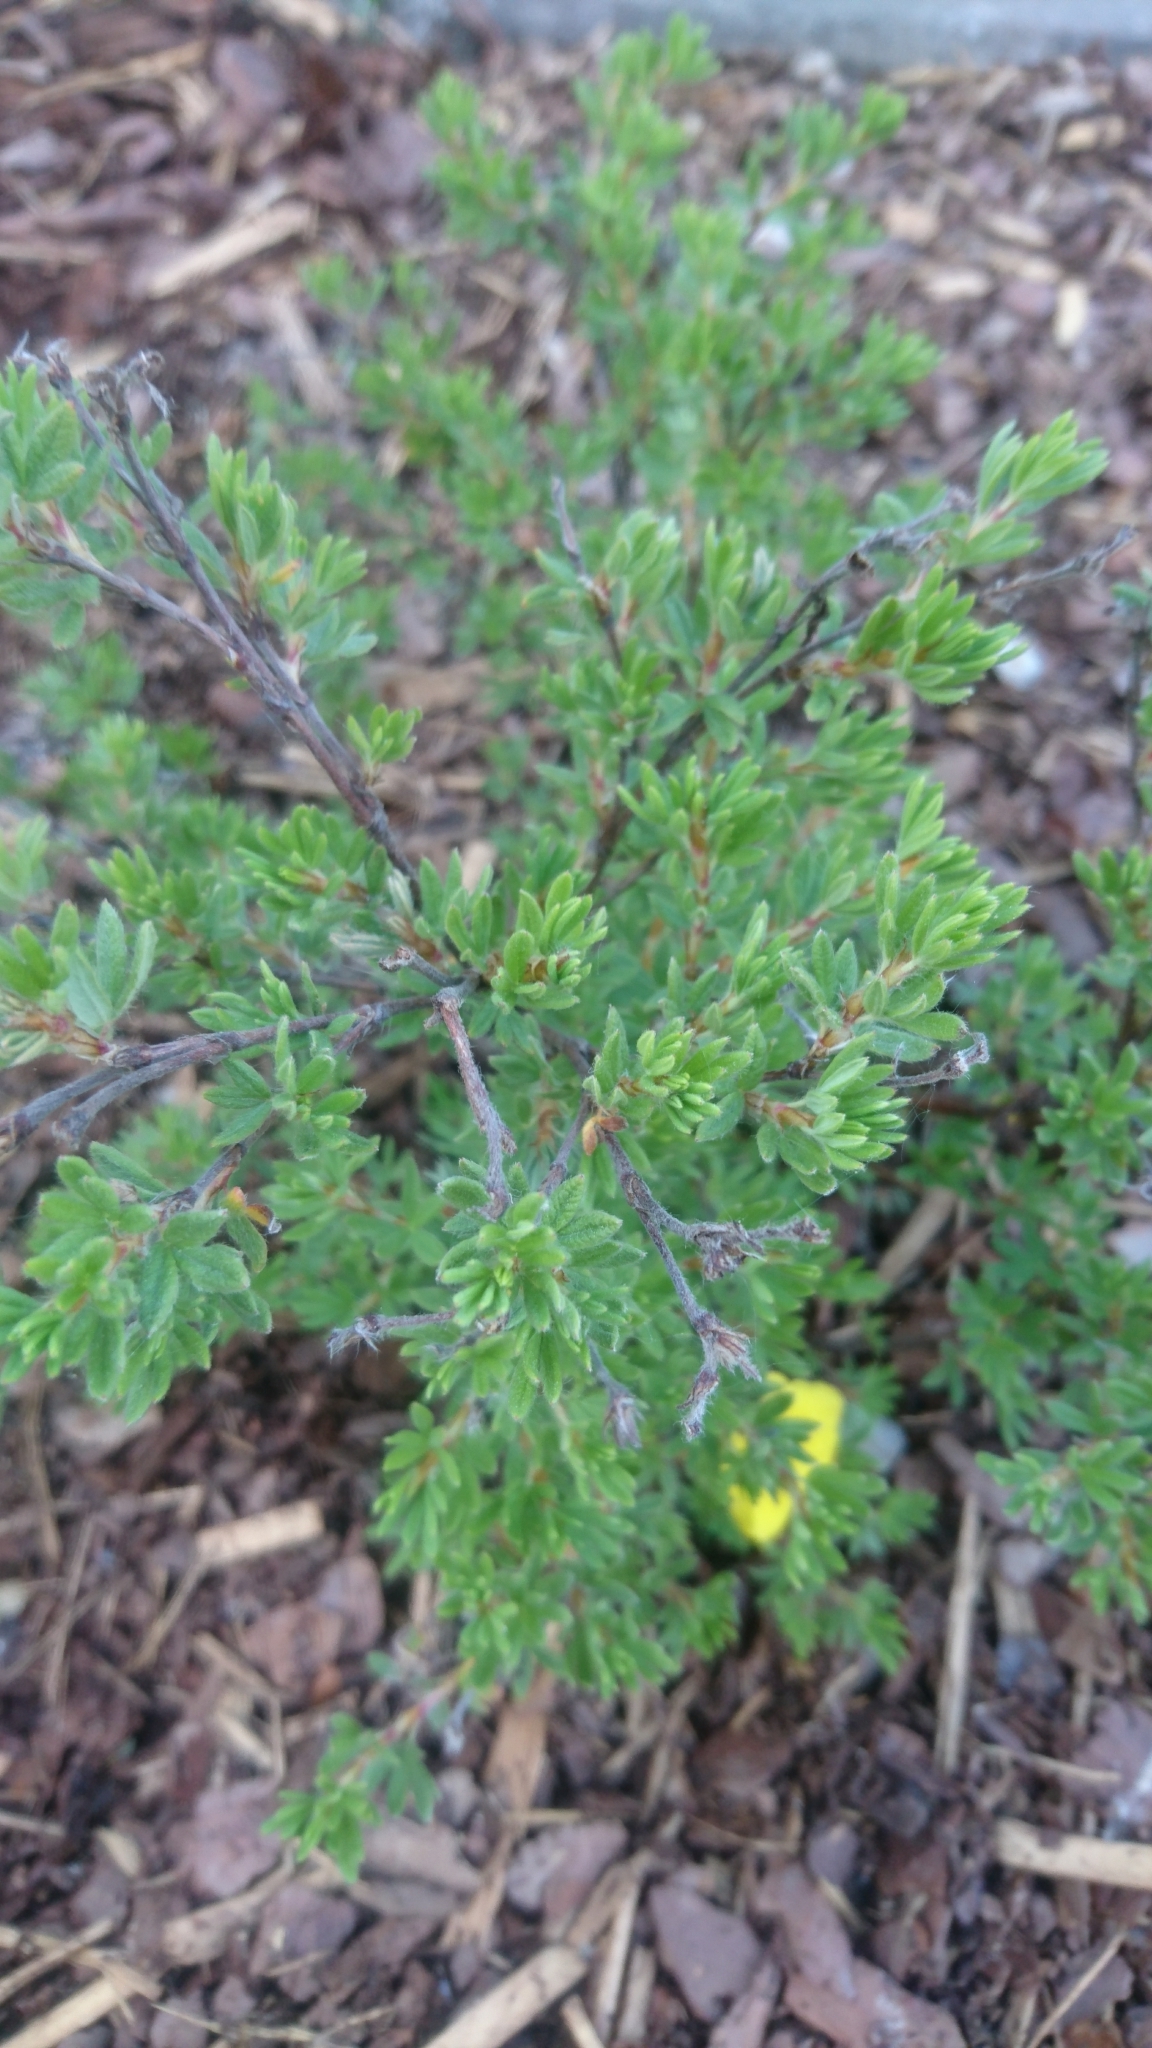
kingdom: Plantae
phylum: Tracheophyta
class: Magnoliopsida
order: Rosales
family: Rosaceae
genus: Dasiphora
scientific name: Dasiphora fruticosa
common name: Shrubby cinquefoil
